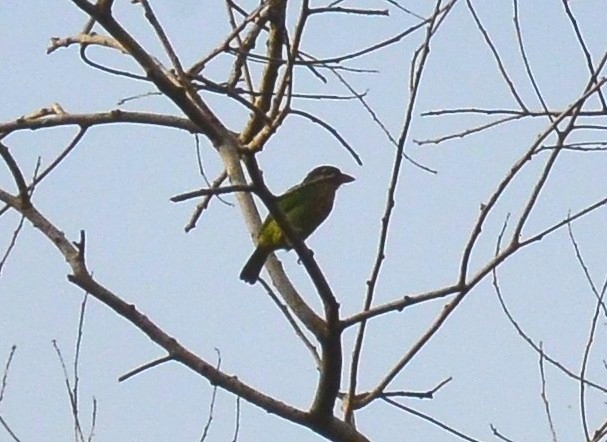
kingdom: Animalia
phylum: Chordata
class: Aves
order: Piciformes
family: Megalaimidae
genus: Psilopogon
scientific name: Psilopogon viridis
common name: White-cheeked barbet
